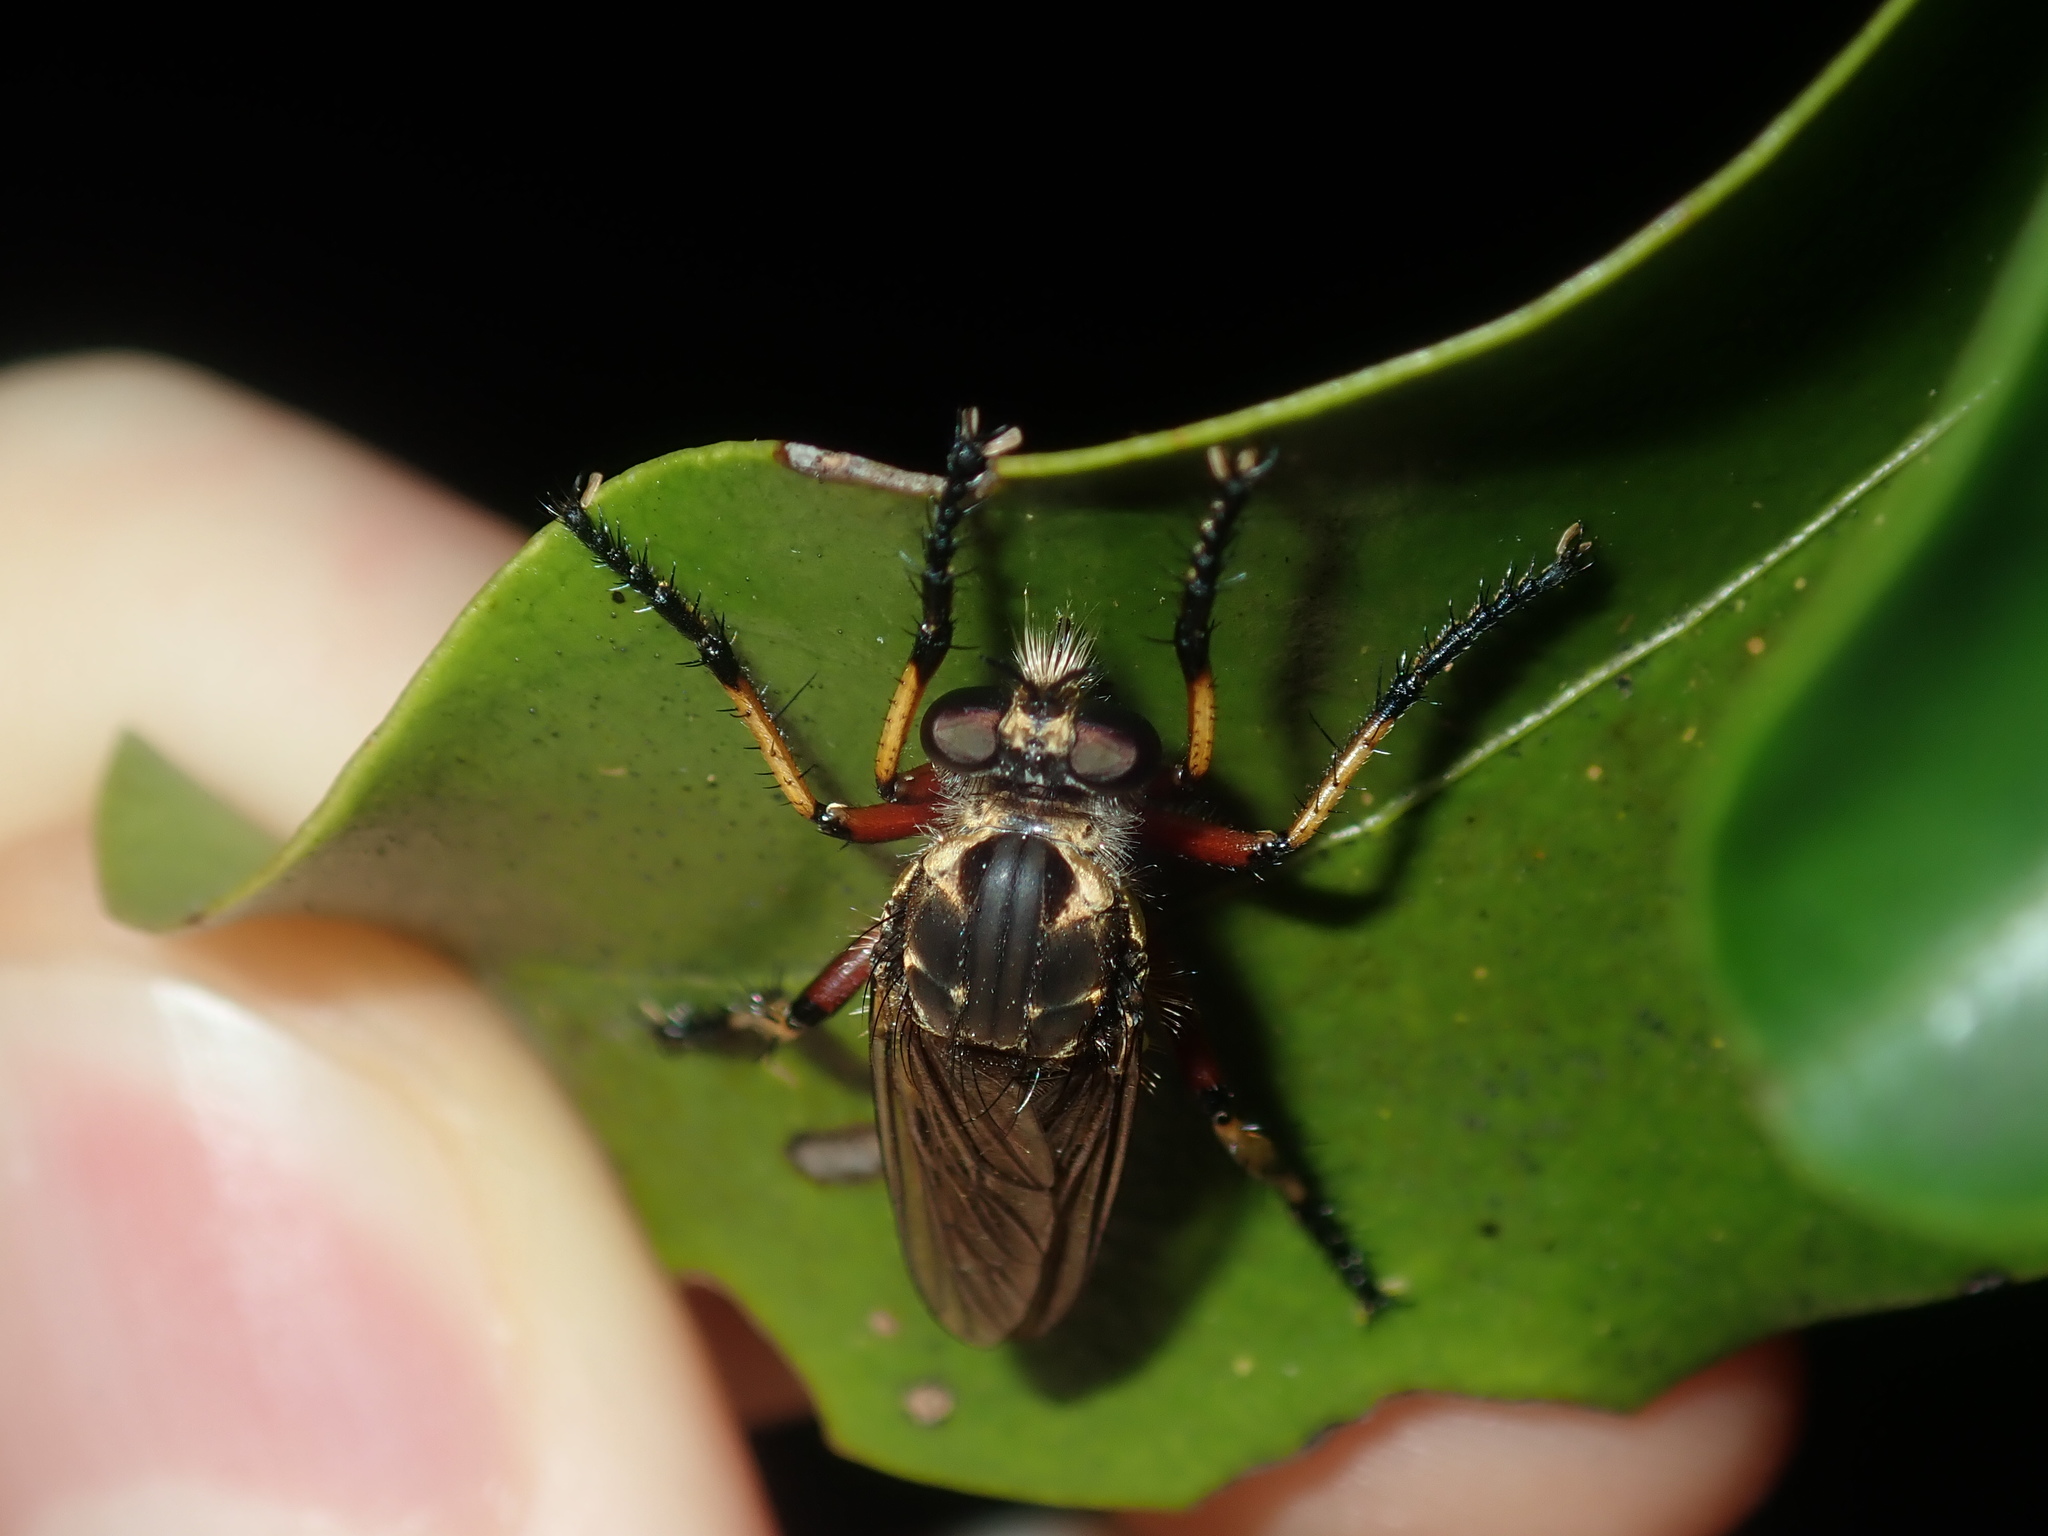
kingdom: Animalia
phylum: Arthropoda
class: Insecta
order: Diptera
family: Asilidae
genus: Thereutria
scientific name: Thereutria amaraca
